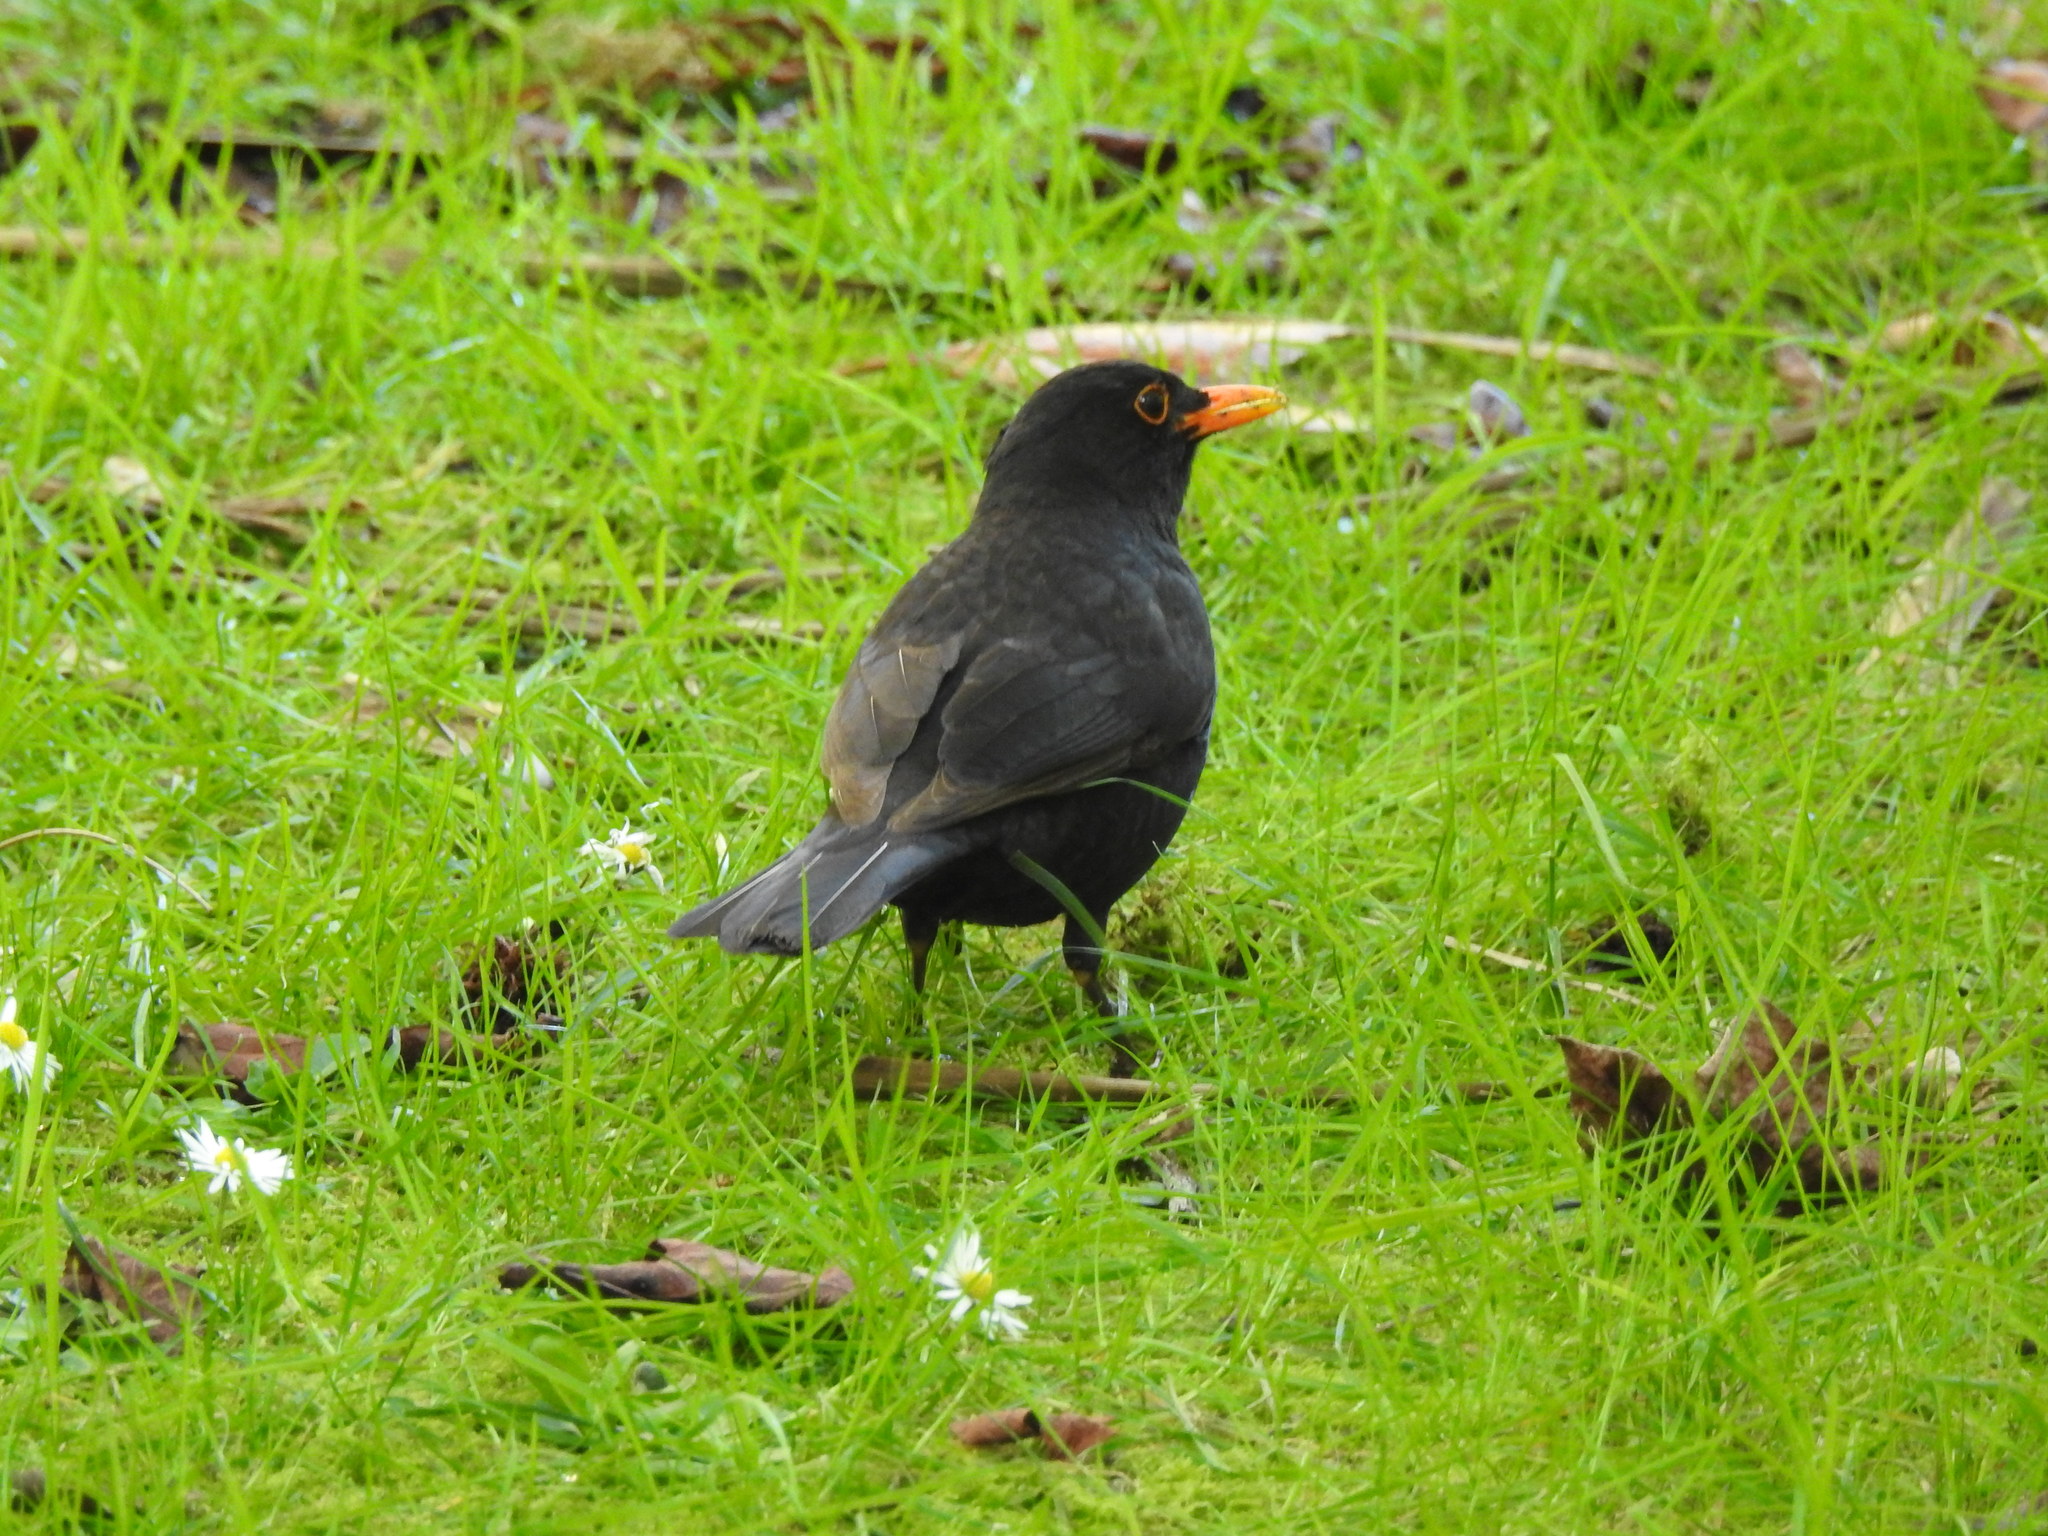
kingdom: Animalia
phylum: Chordata
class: Aves
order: Passeriformes
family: Turdidae
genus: Turdus
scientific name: Turdus merula
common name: Common blackbird
